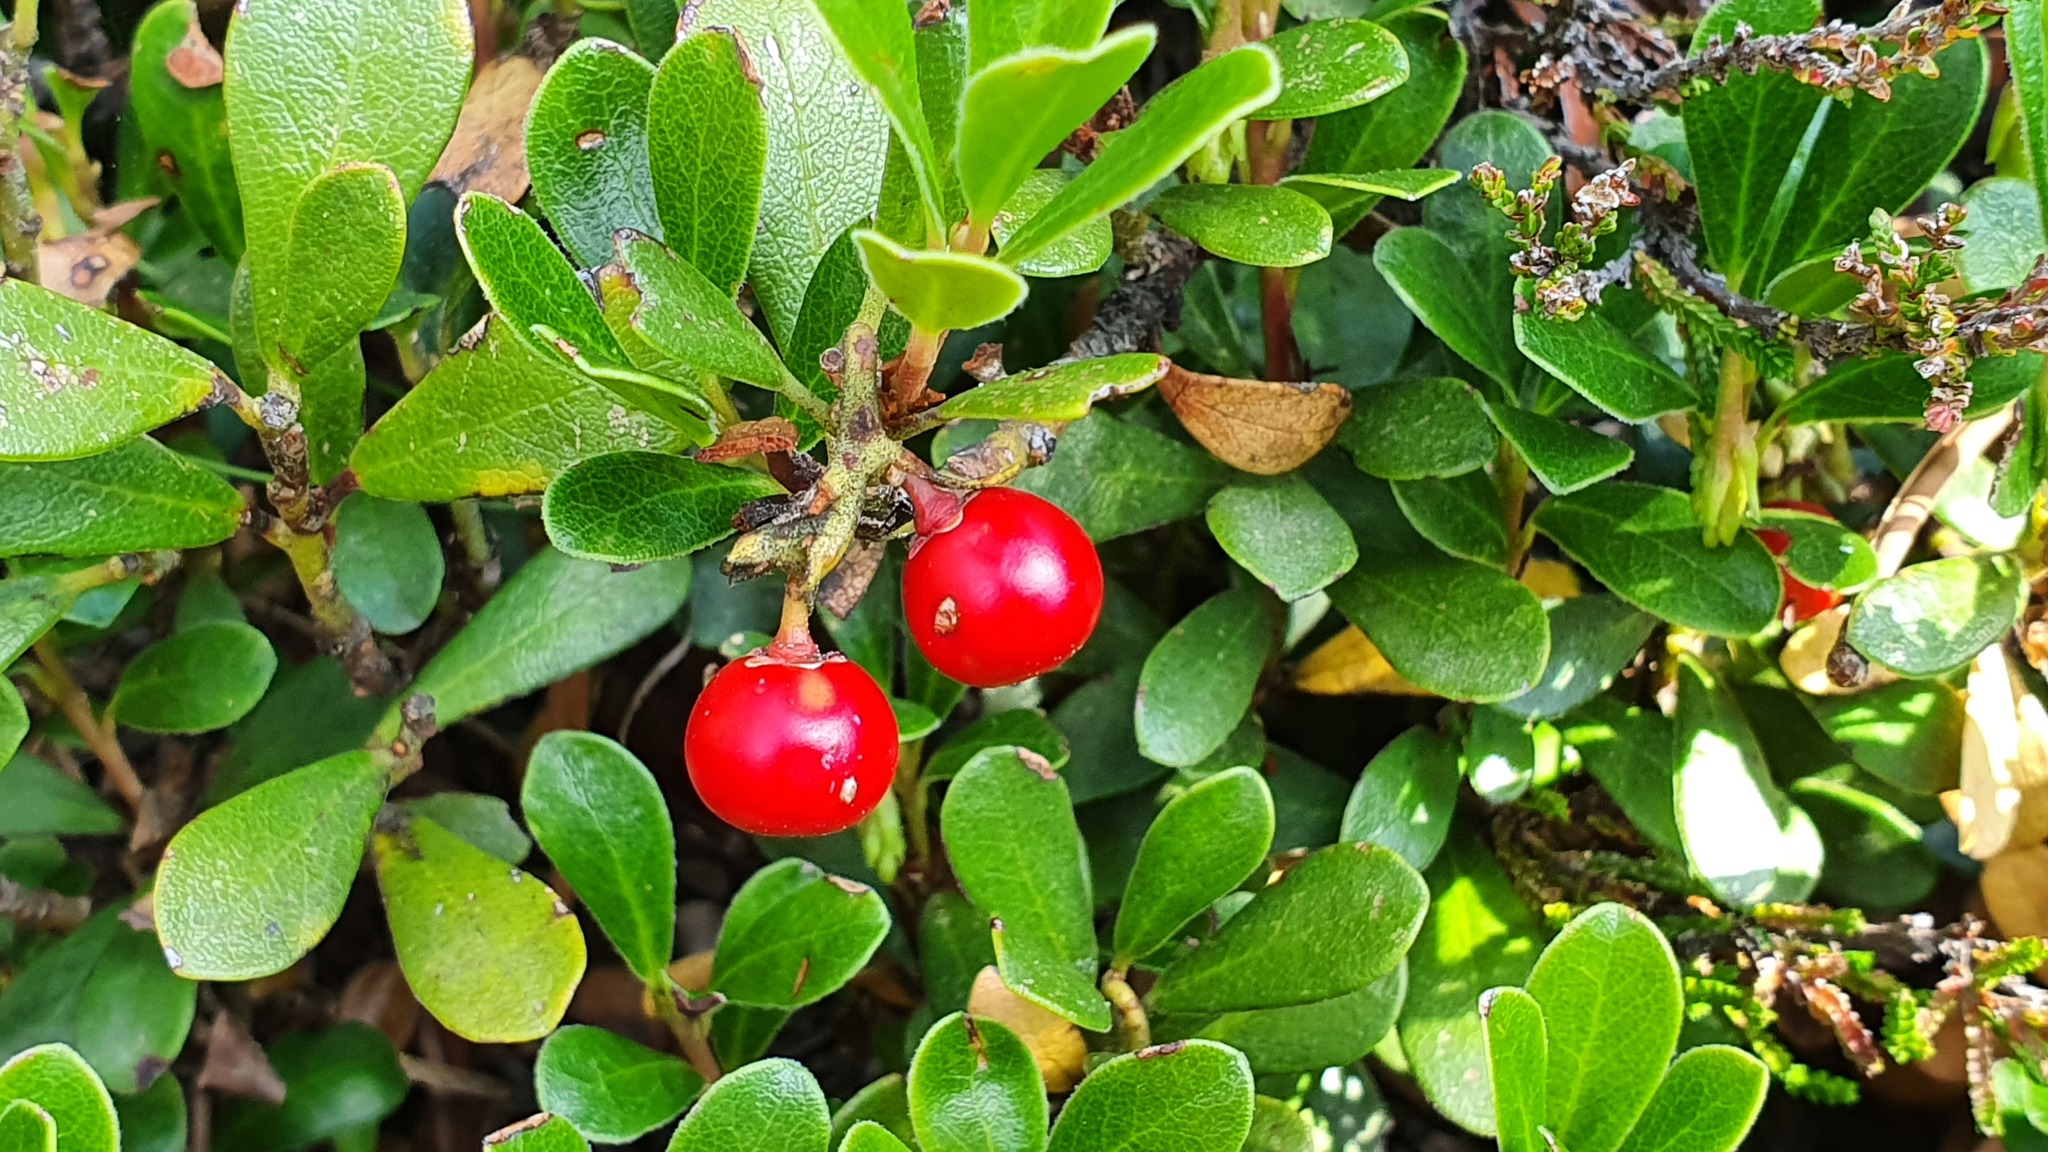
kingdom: Plantae
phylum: Tracheophyta
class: Magnoliopsida
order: Ericales
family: Ericaceae
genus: Arctostaphylos
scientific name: Arctostaphylos uva-ursi
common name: Bearberry
